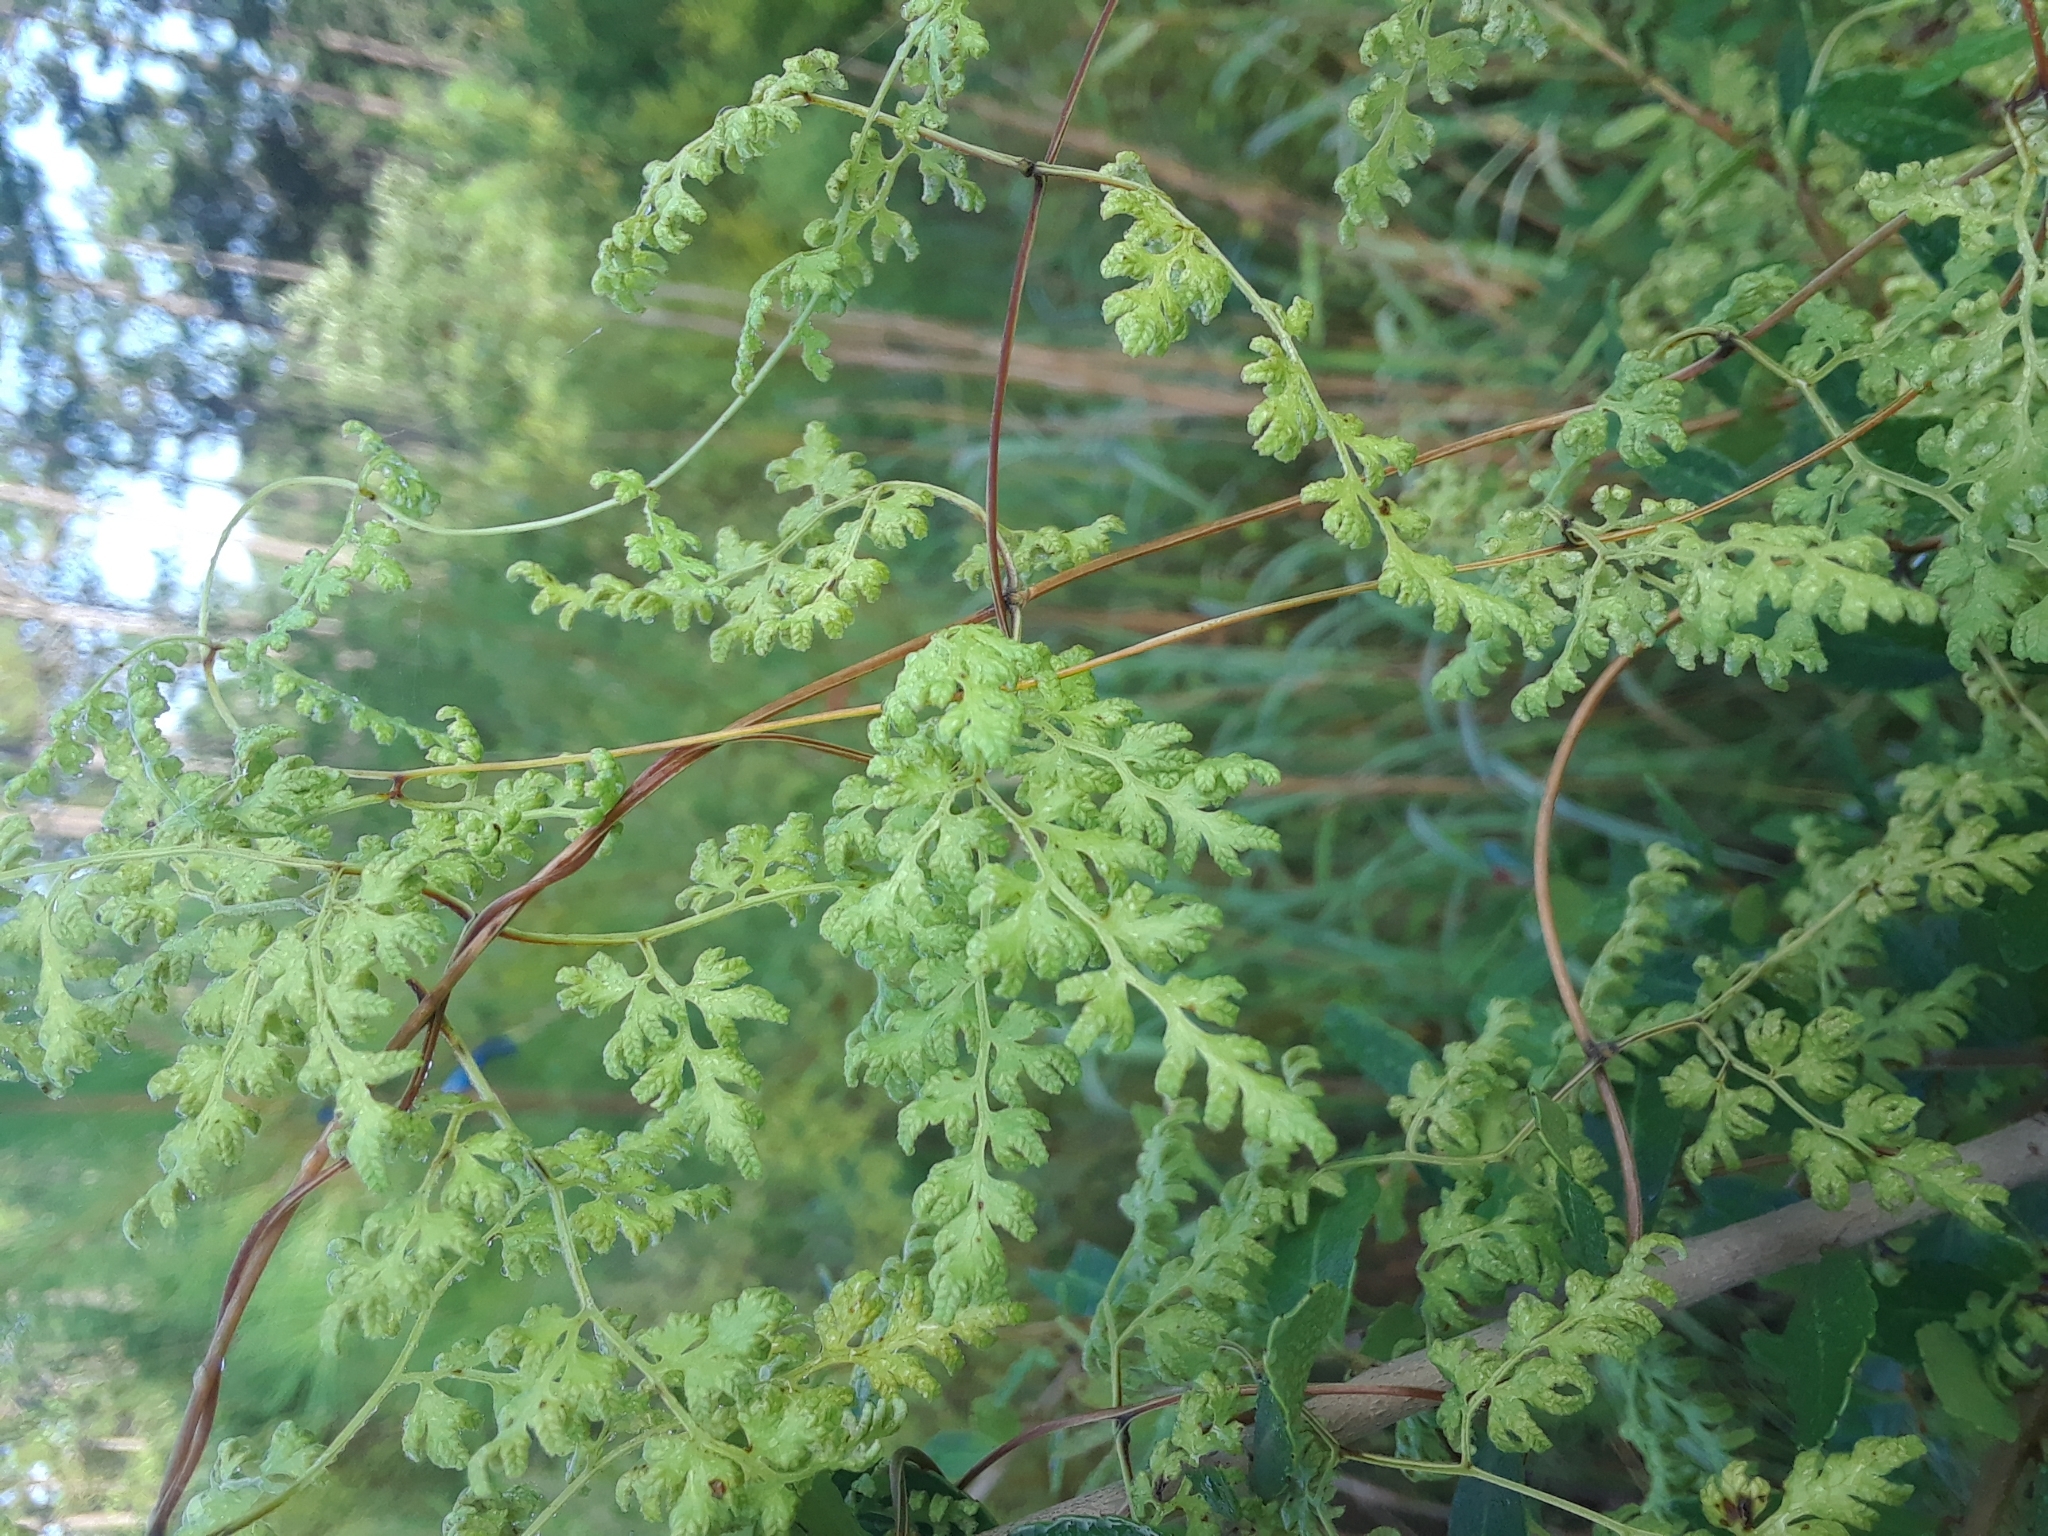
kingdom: Plantae
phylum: Tracheophyta
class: Polypodiopsida
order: Schizaeales
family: Lygodiaceae
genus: Lygodium
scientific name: Lygodium japonicum
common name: Japanese climbing fern
